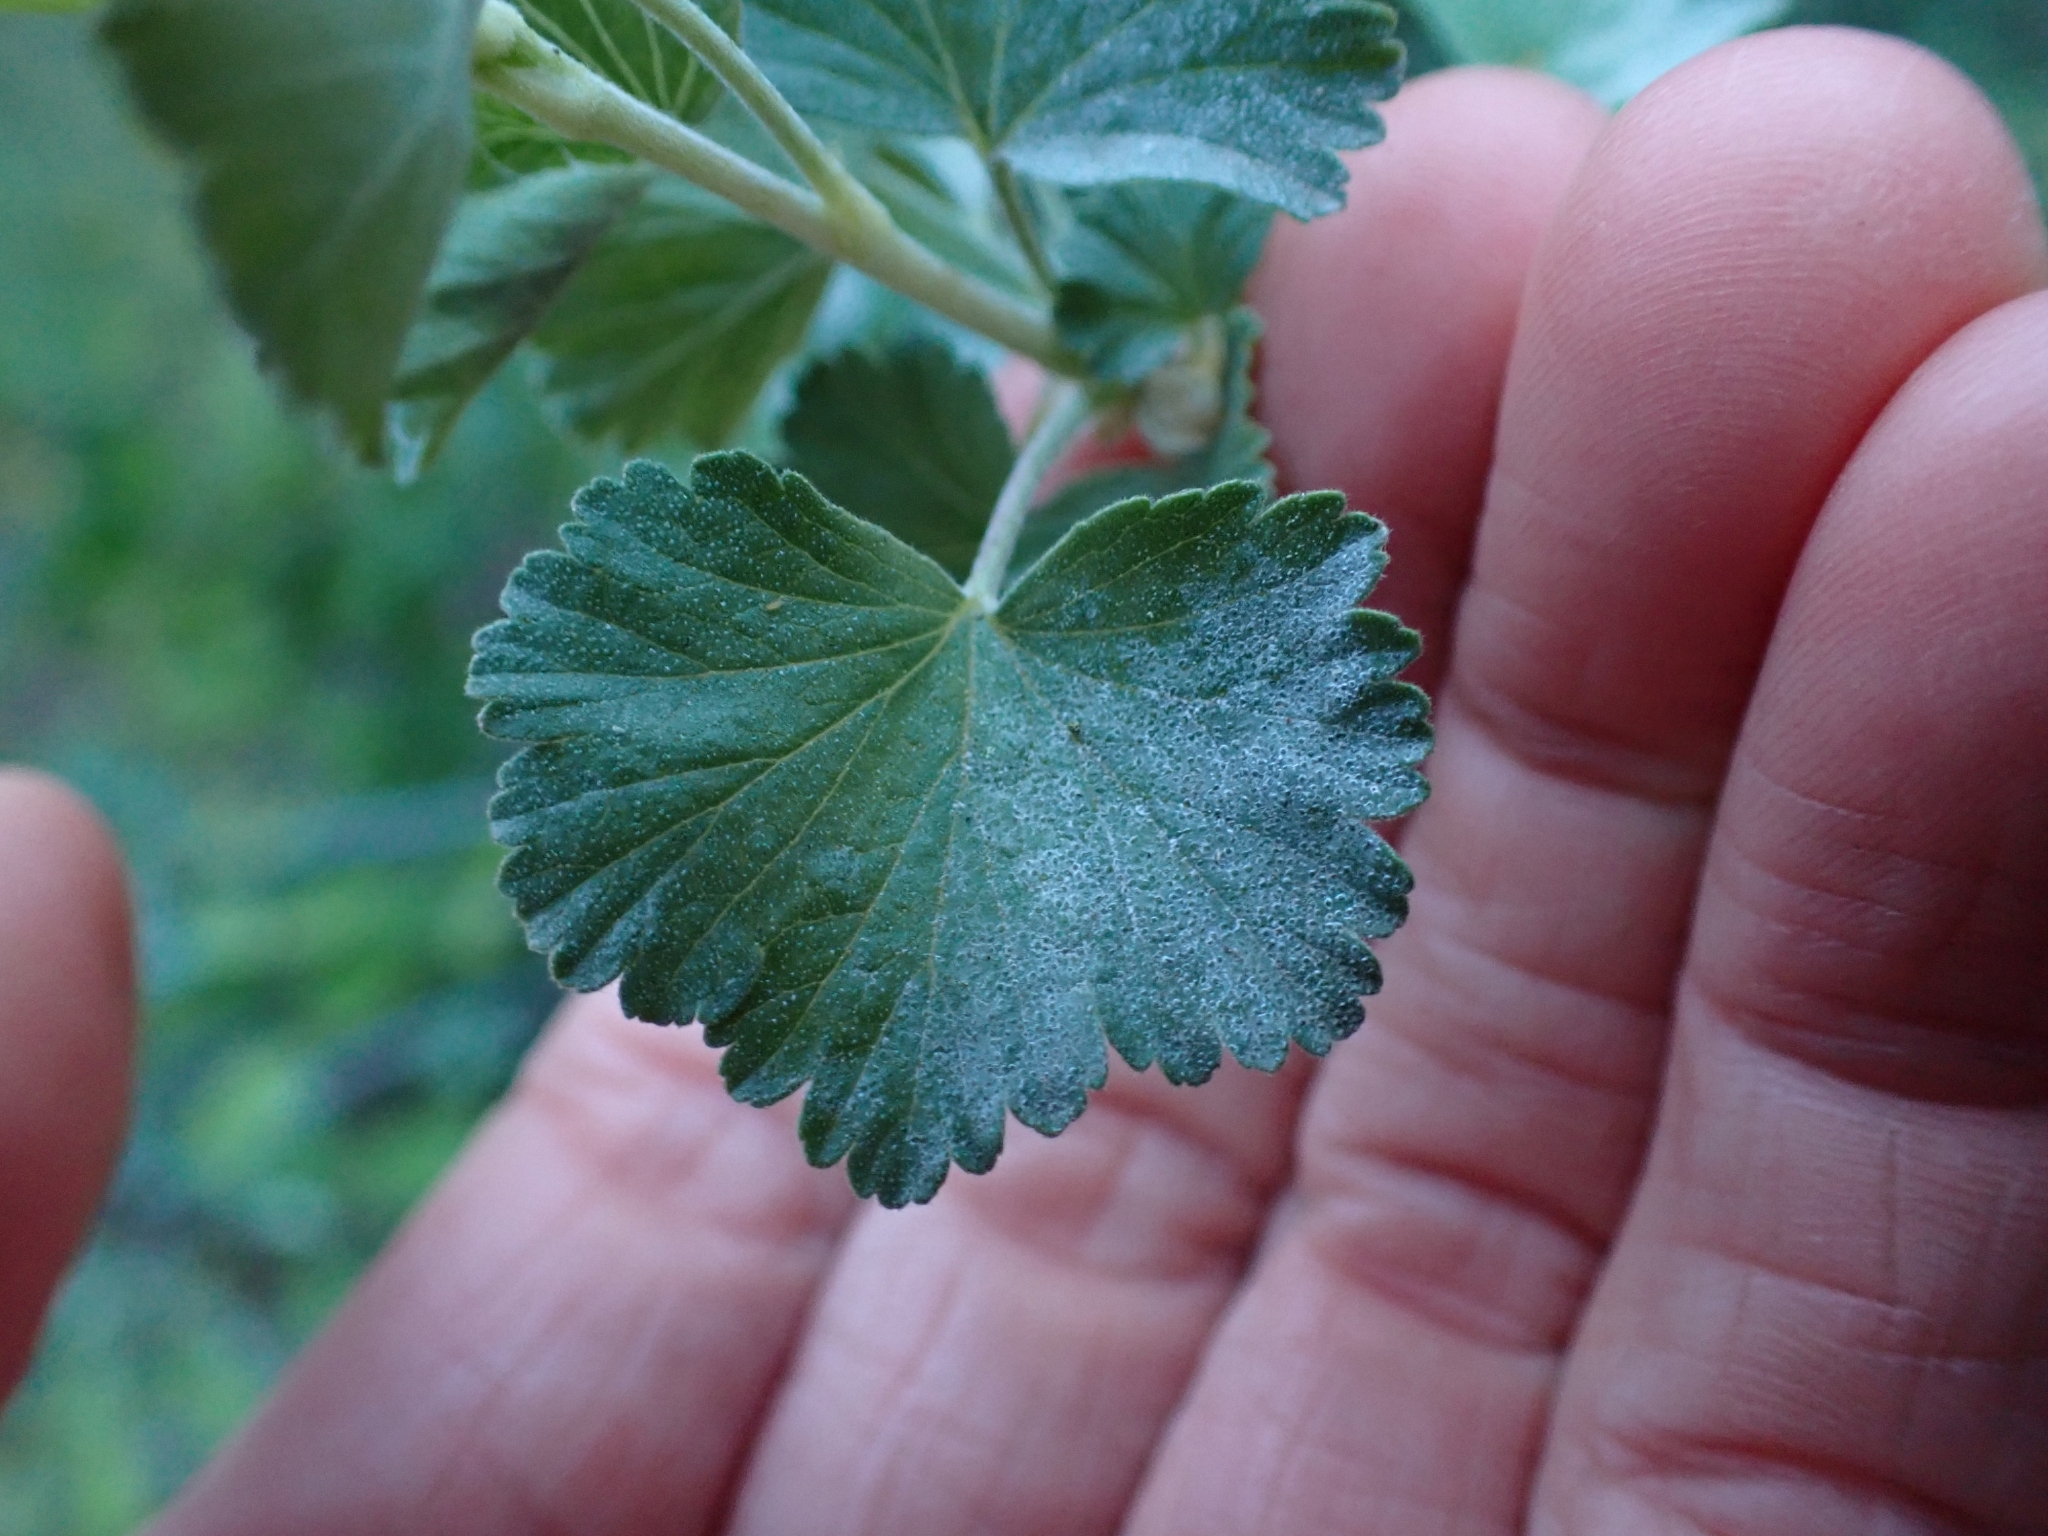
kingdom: Plantae
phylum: Tracheophyta
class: Magnoliopsida
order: Saxifragales
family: Grossulariaceae
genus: Ribes
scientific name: Ribes cereum
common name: Wax currant
